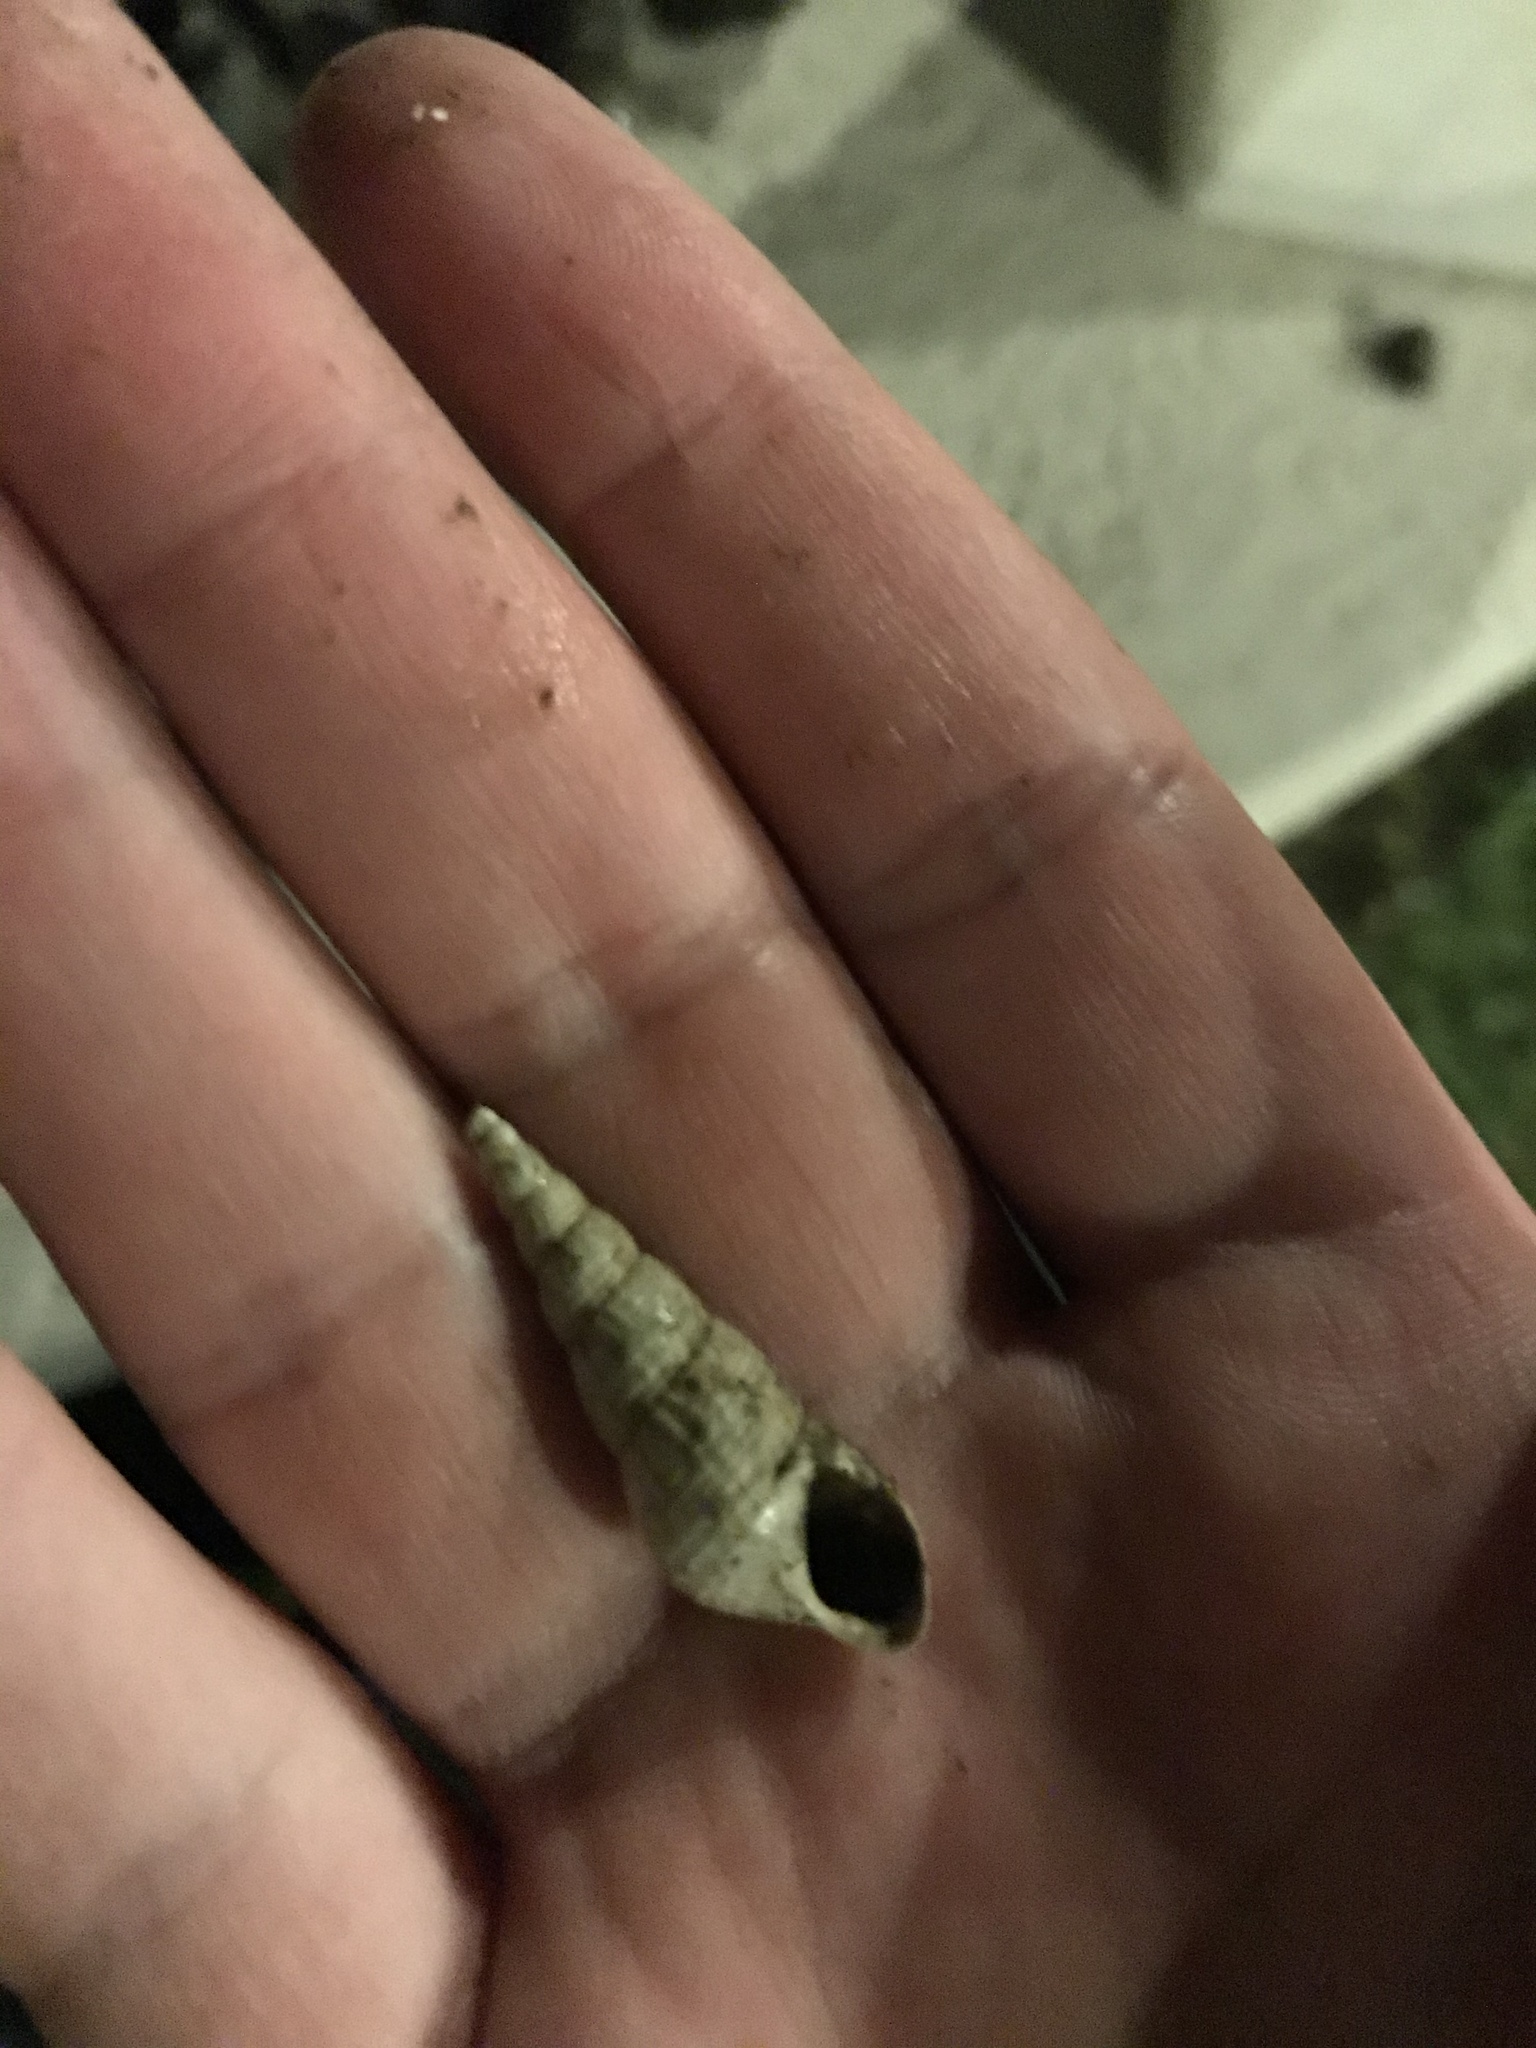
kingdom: Animalia
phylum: Mollusca
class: Gastropoda
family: Thiaridae
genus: Melanoides
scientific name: Melanoides tuberculata
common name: Red-rim melania
